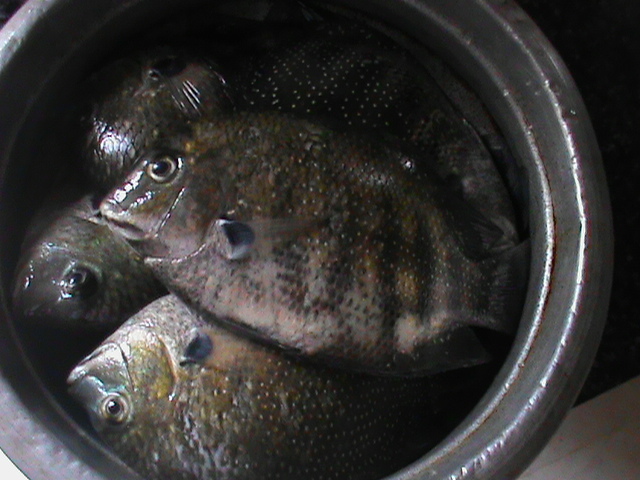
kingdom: Animalia
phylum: Chordata
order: Perciformes
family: Cichlidae
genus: Etroplus
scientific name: Etroplus suratensis
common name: Green chromide
